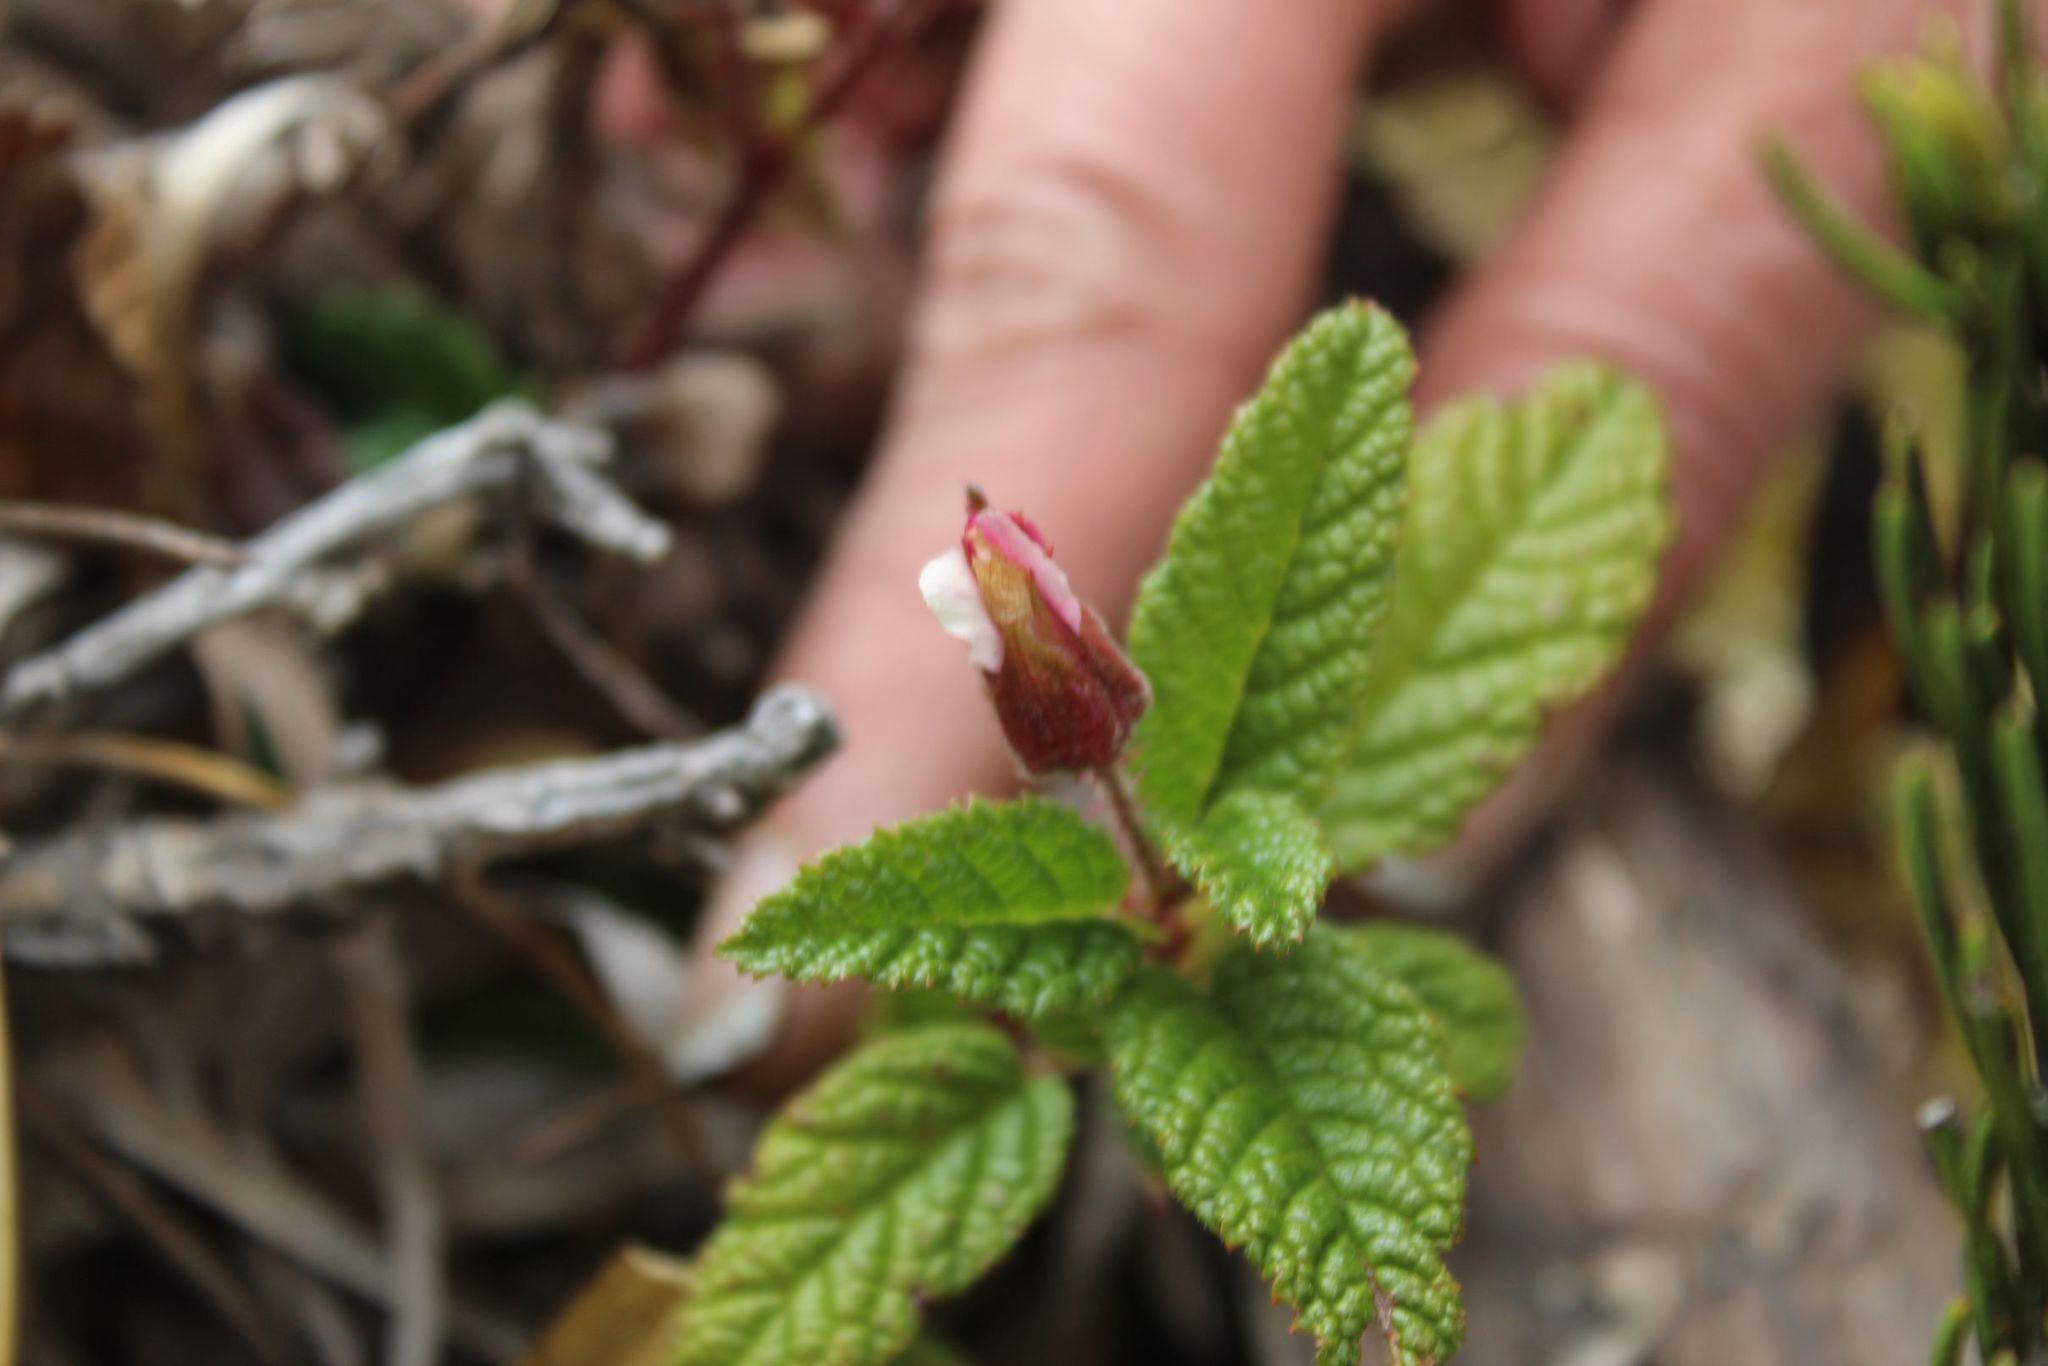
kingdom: Plantae
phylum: Tracheophyta
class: Magnoliopsida
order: Rosales
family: Rosaceae
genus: Rubus
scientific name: Rubus acanthophyllos
